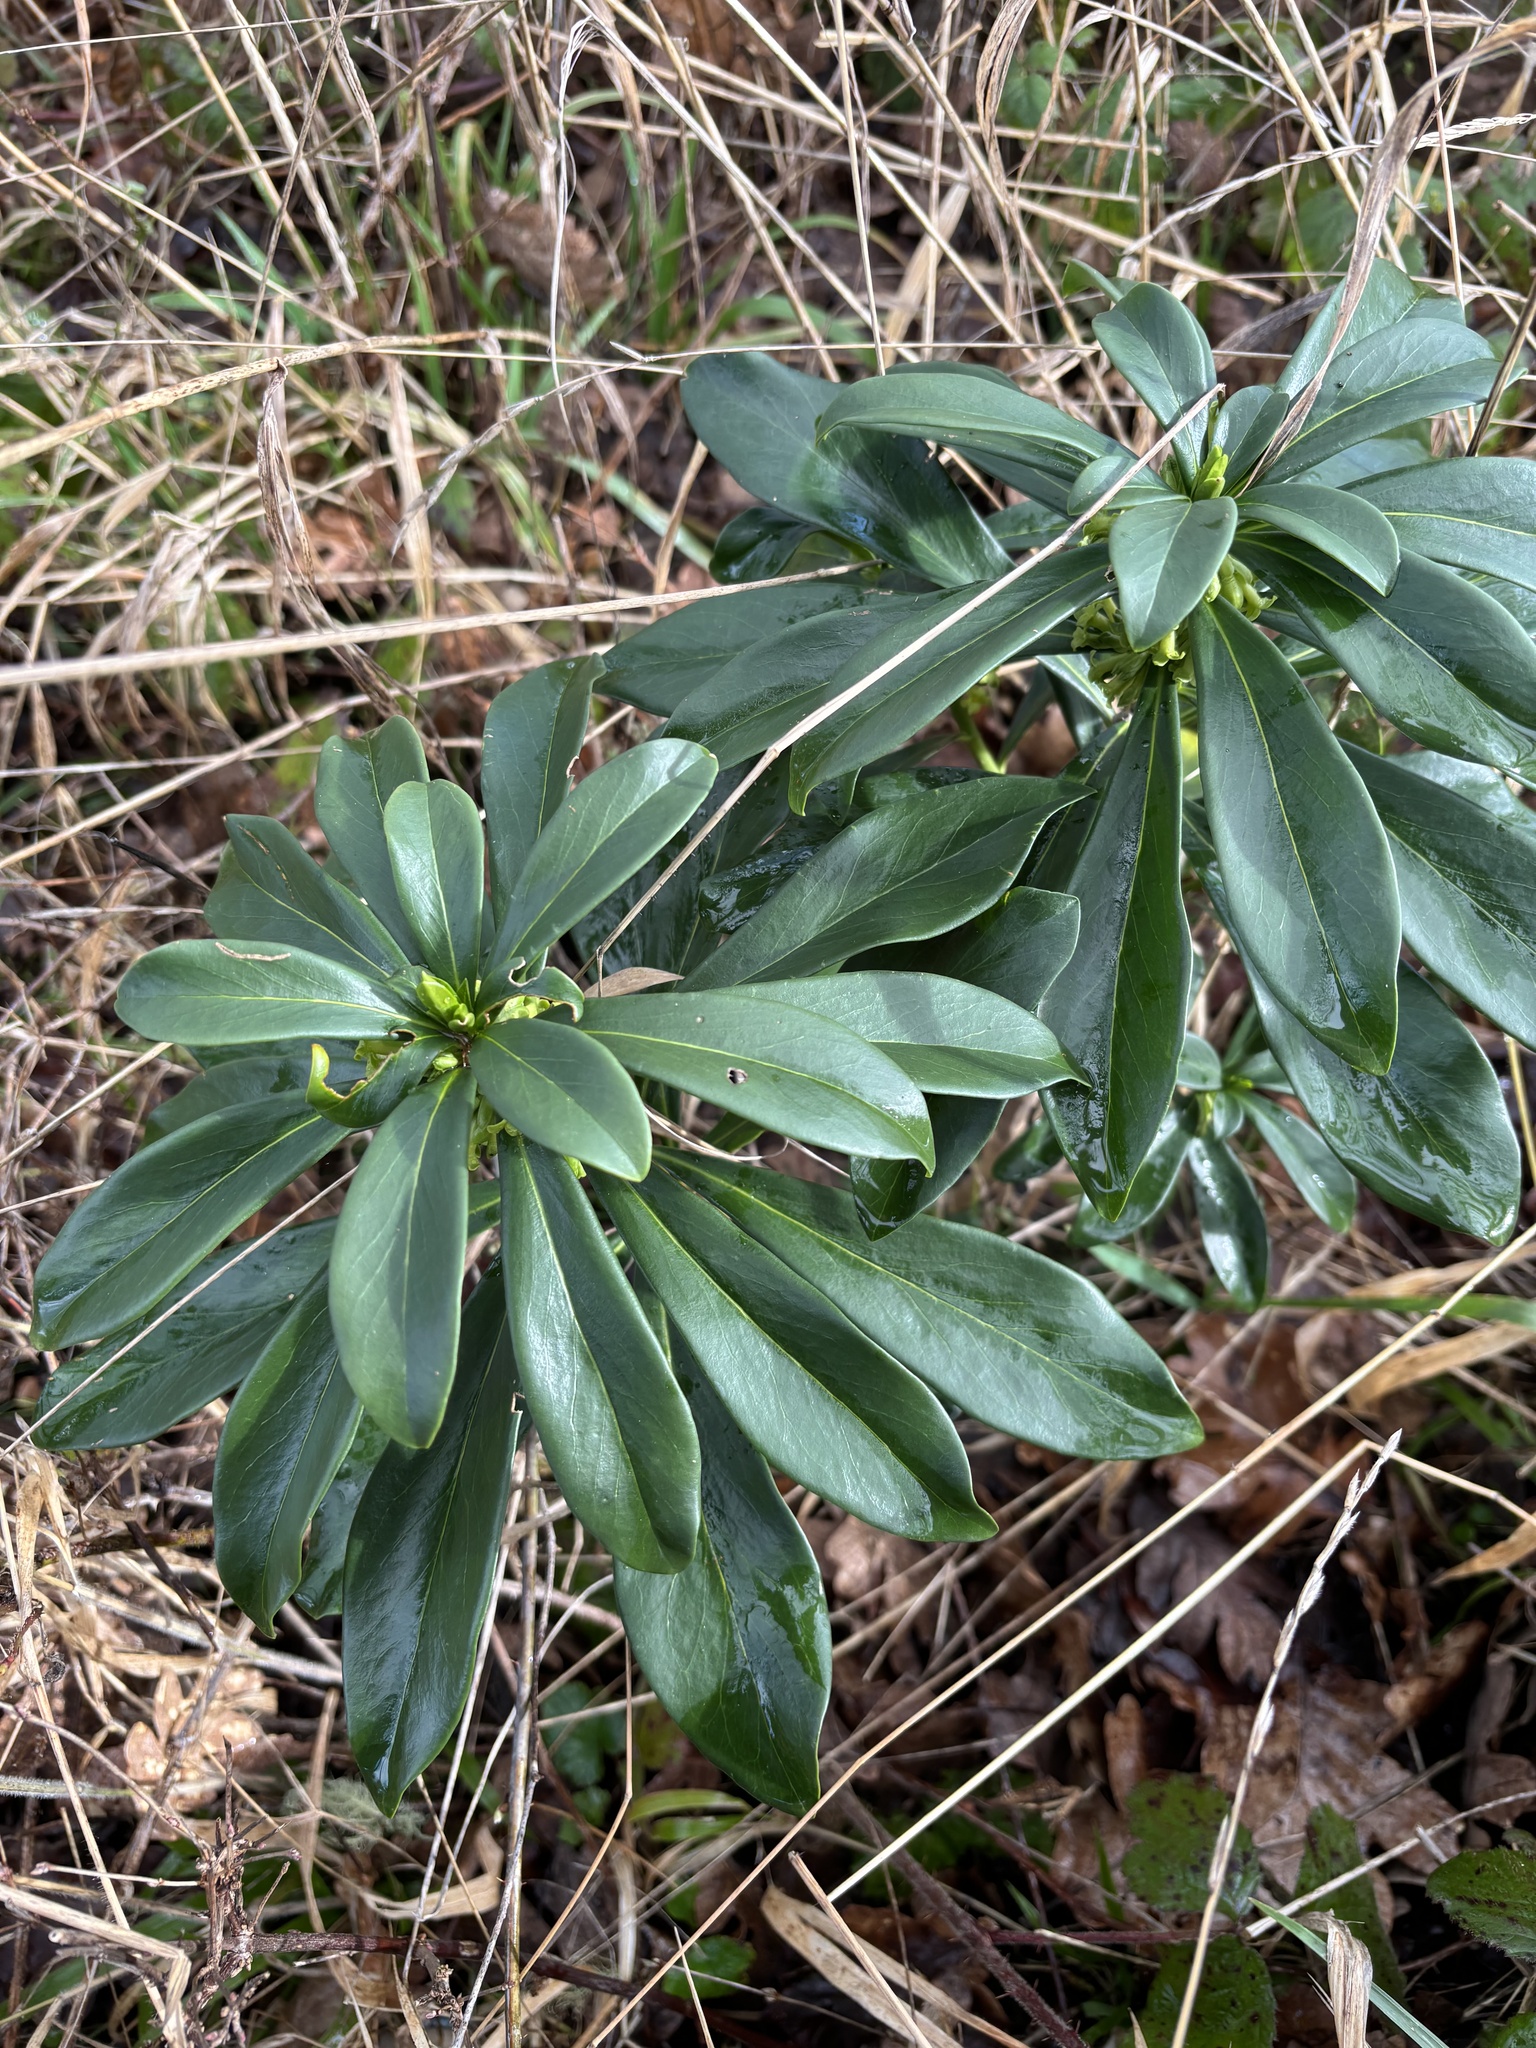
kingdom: Plantae
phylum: Tracheophyta
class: Magnoliopsida
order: Malvales
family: Thymelaeaceae
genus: Daphne
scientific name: Daphne laureola
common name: Spurge-laurel
